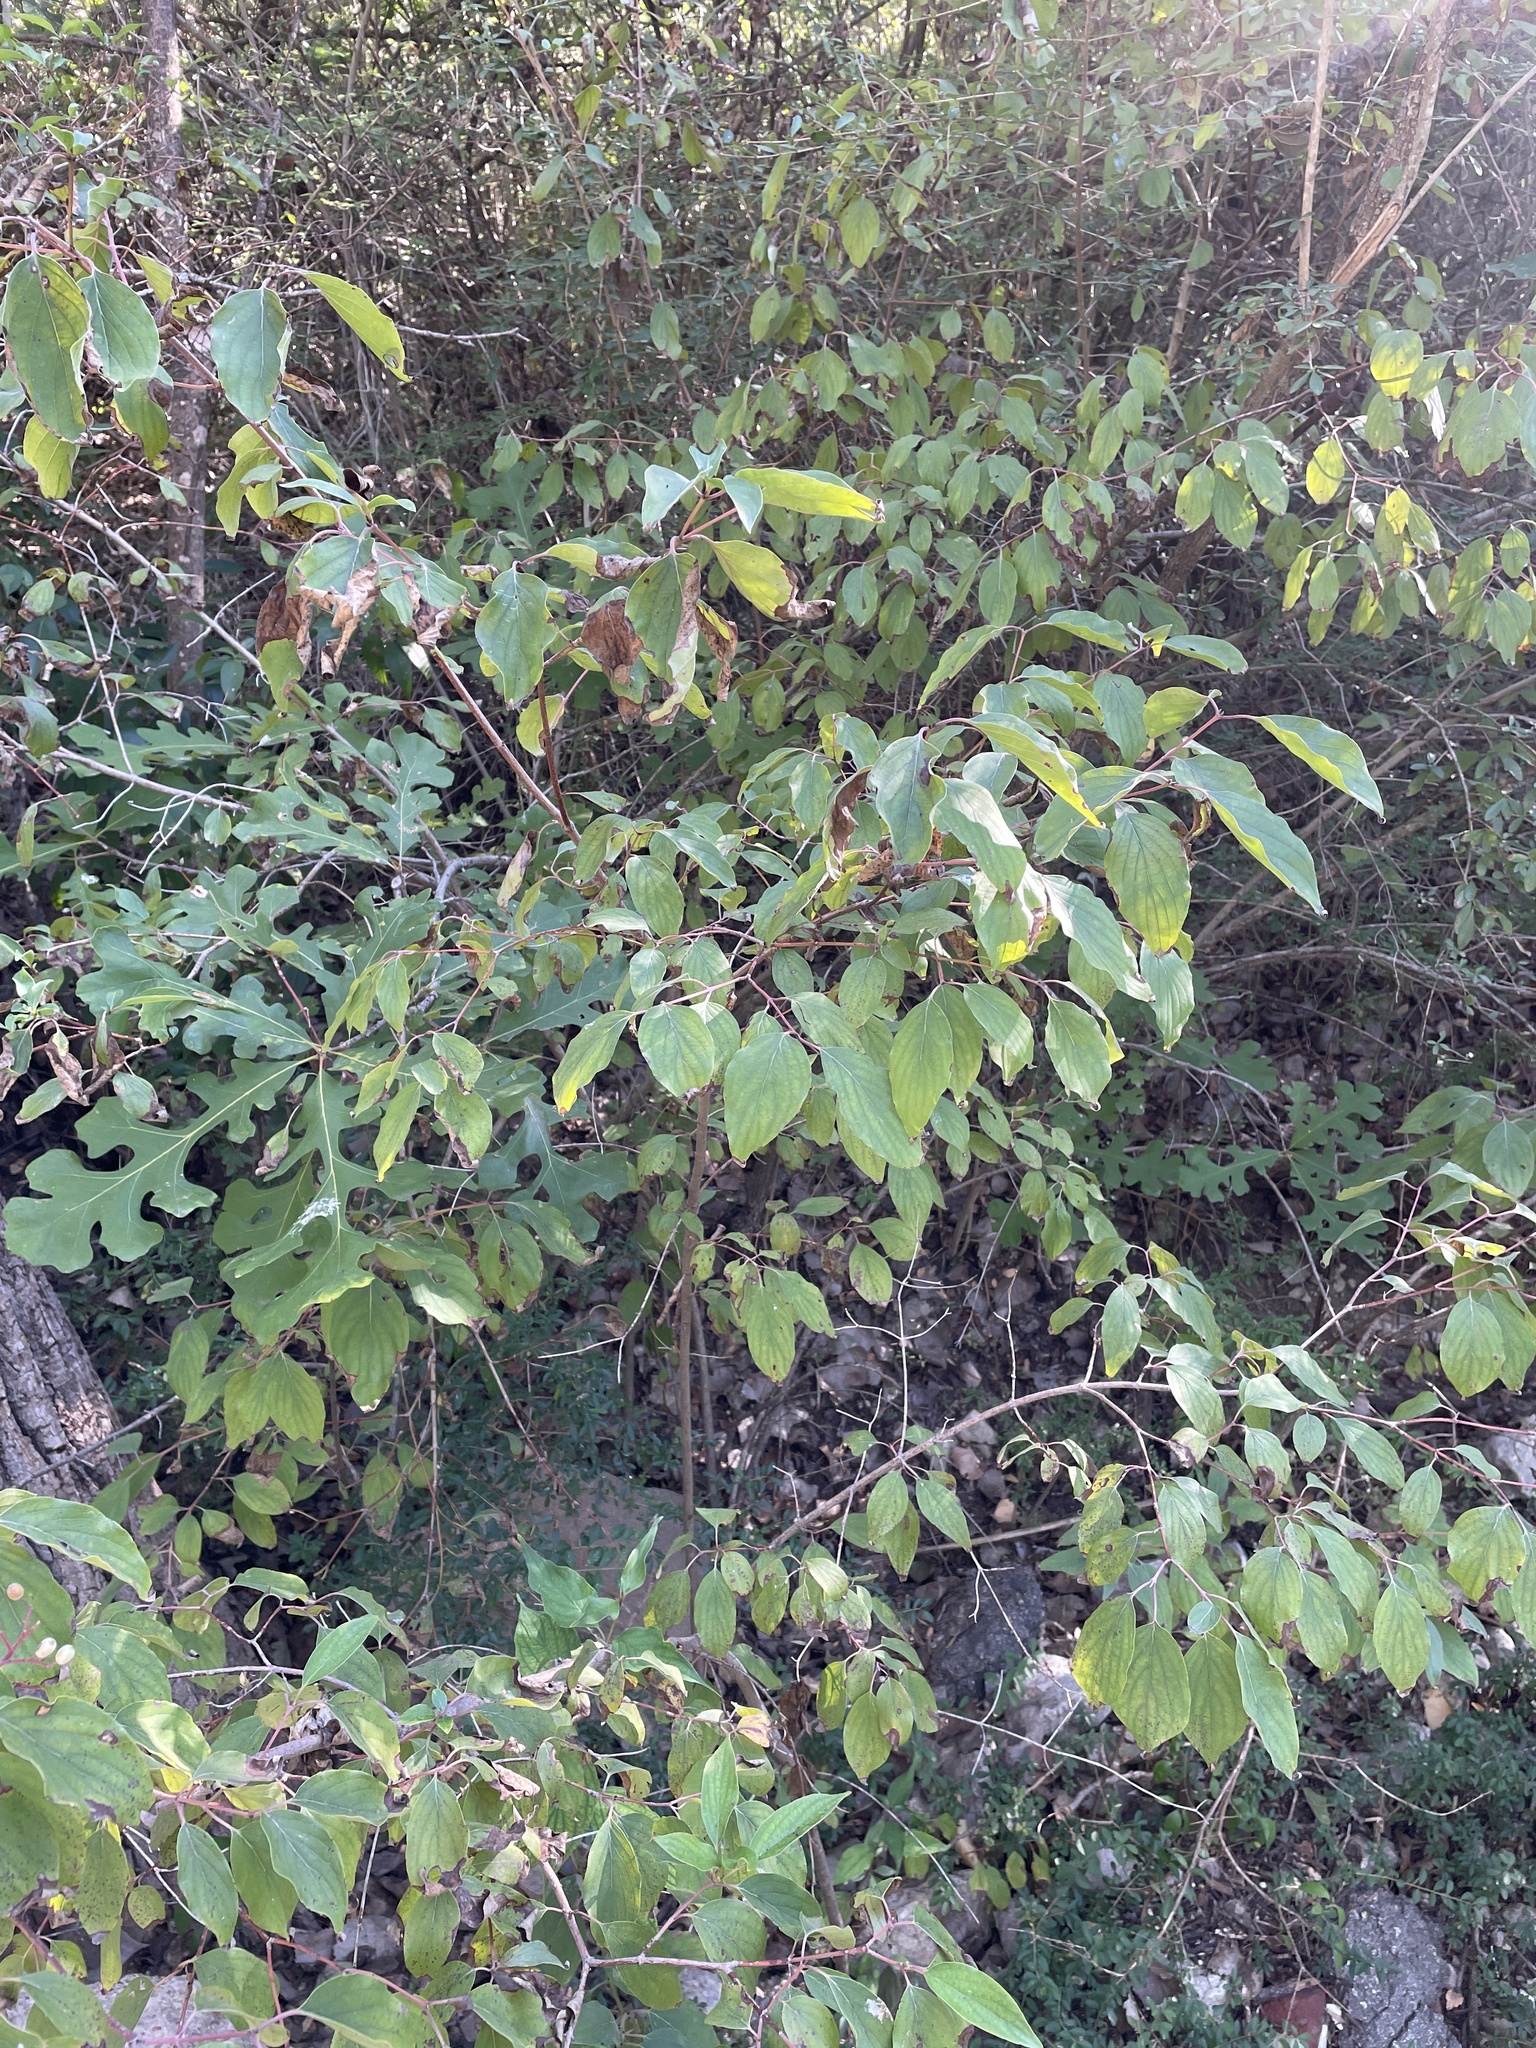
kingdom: Plantae
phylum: Tracheophyta
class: Magnoliopsida
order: Cornales
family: Cornaceae
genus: Cornus
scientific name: Cornus drummondii
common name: Rough-leaf dogwood
